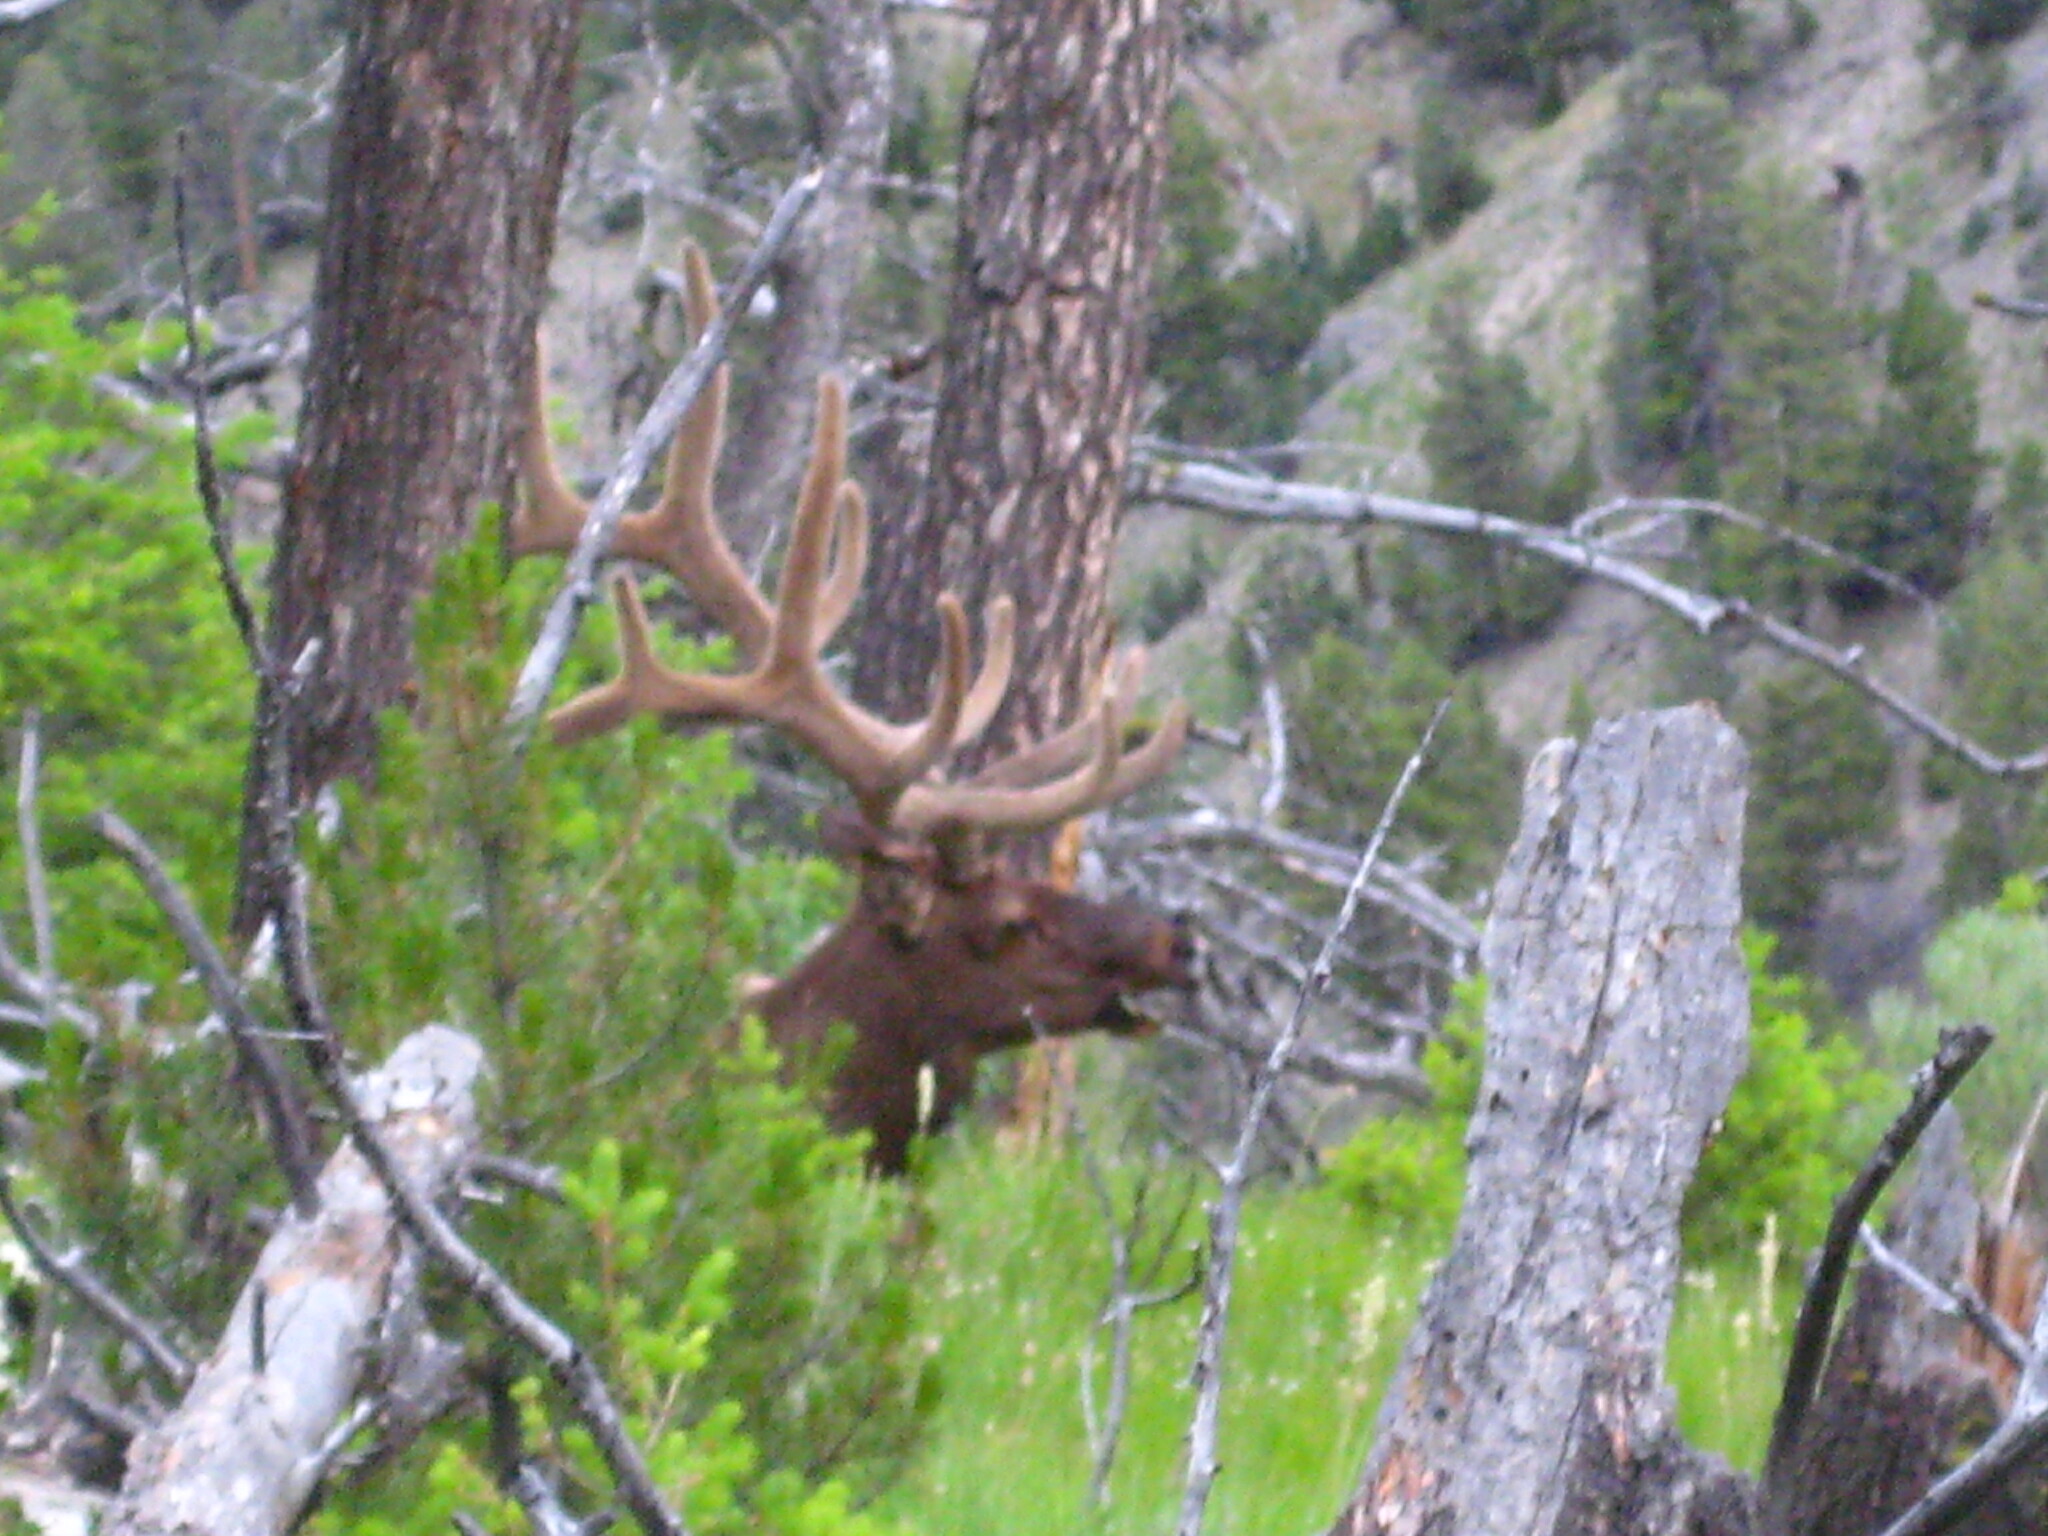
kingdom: Animalia
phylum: Chordata
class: Mammalia
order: Artiodactyla
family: Cervidae
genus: Cervus
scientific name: Cervus elaphus
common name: Red deer
